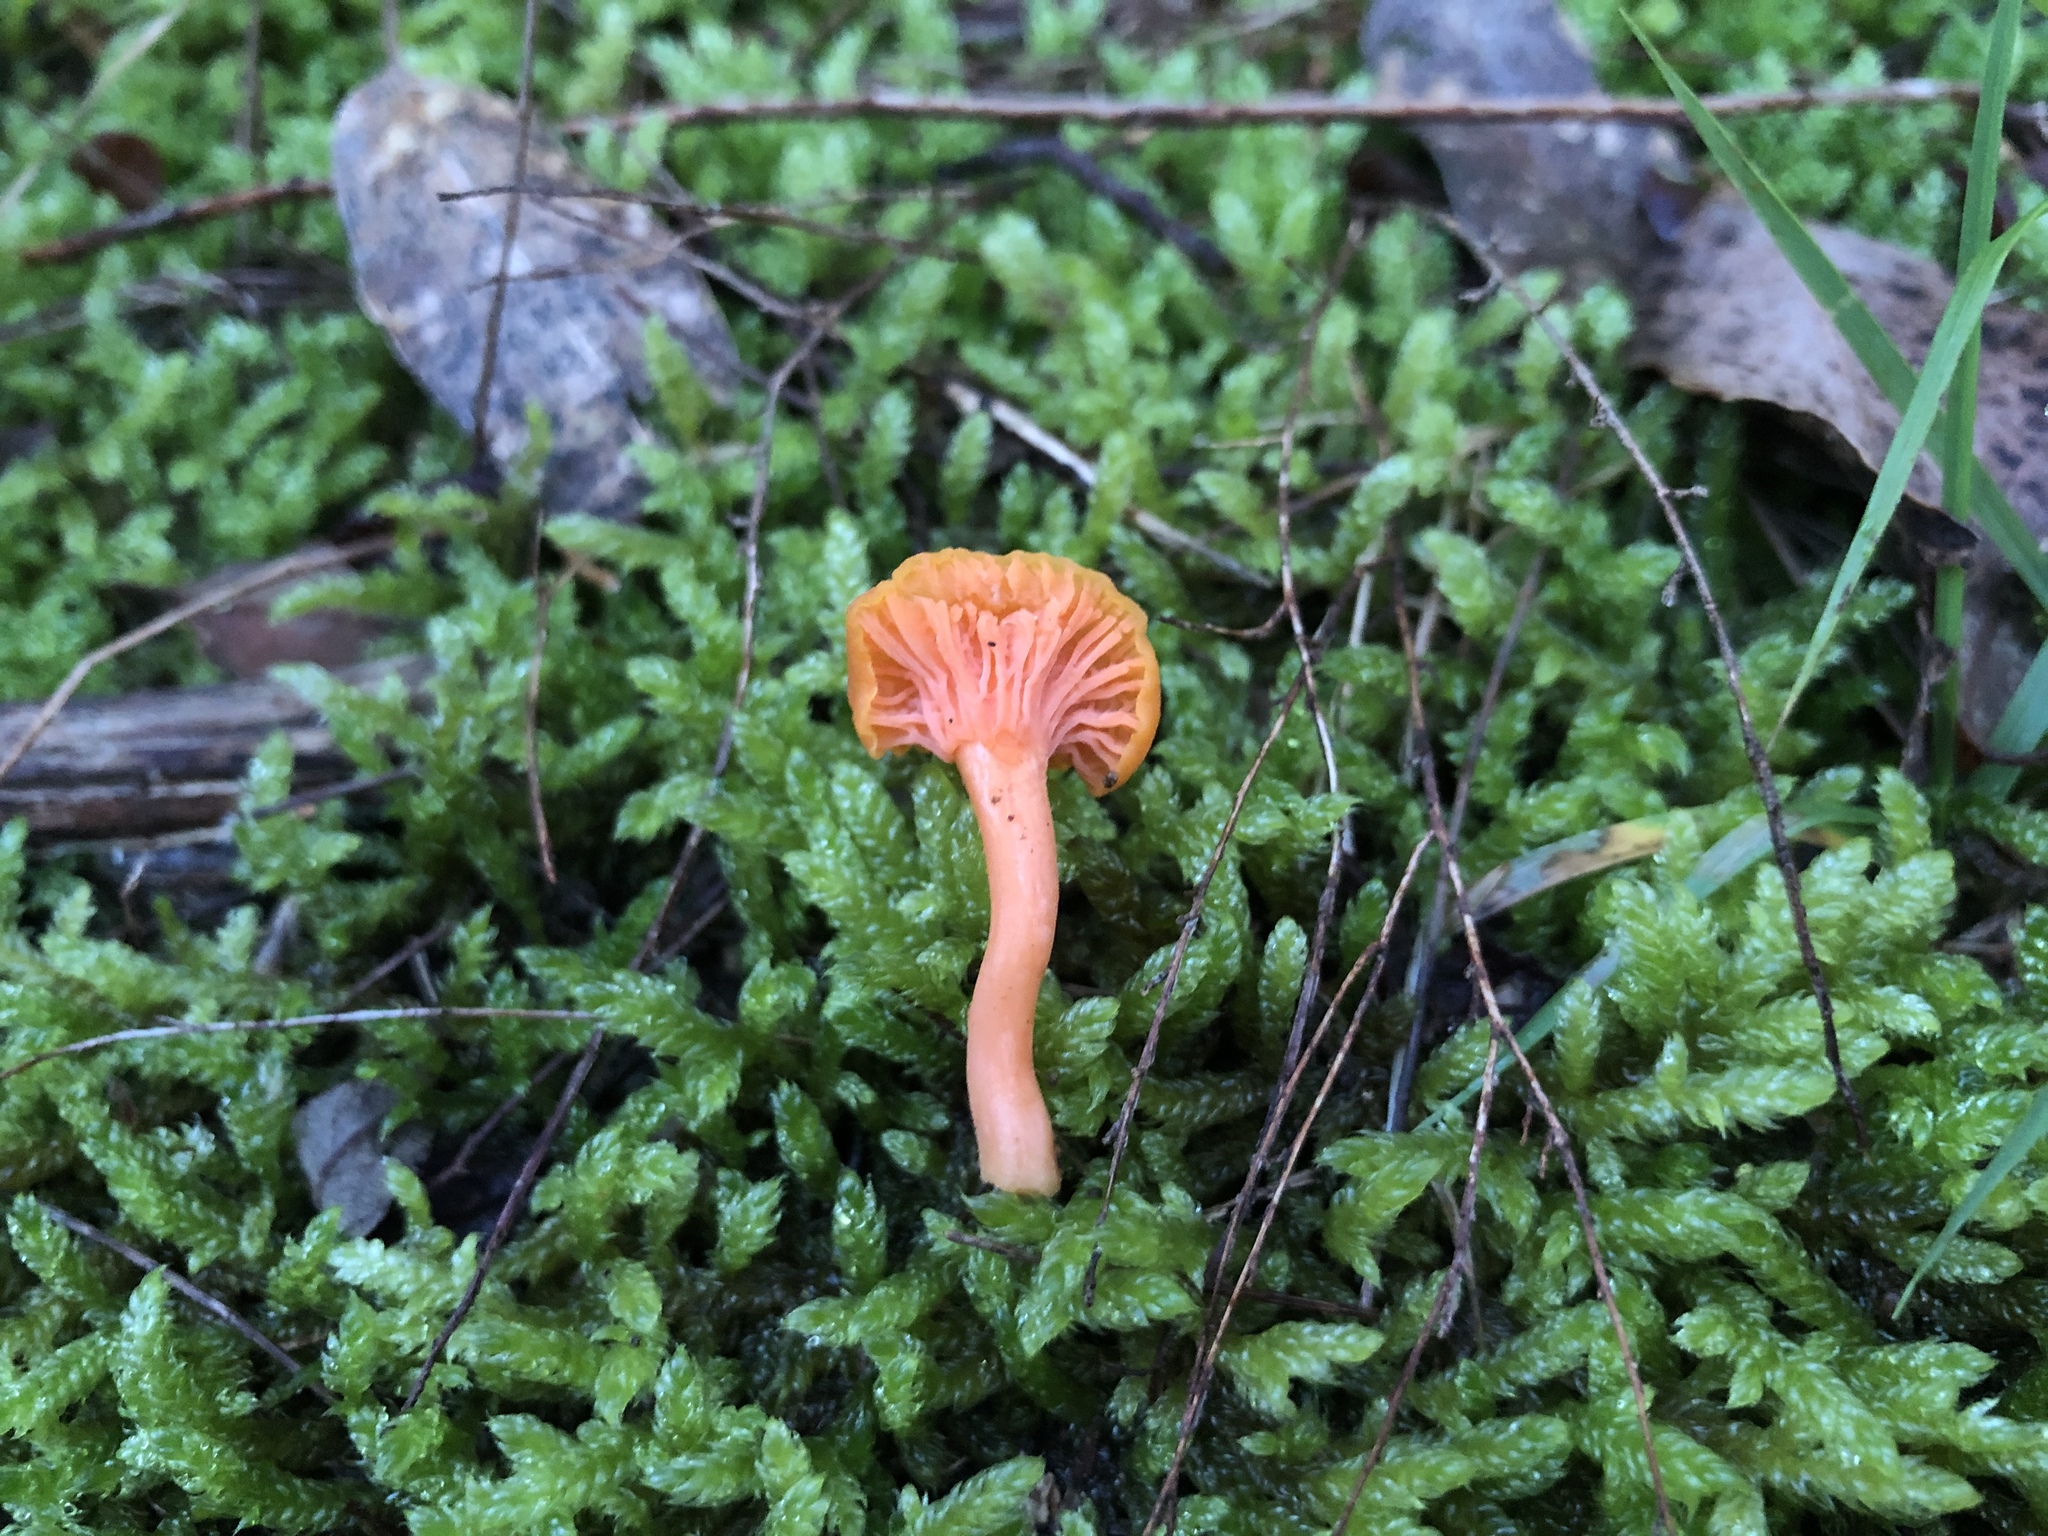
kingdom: Fungi
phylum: Basidiomycota
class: Agaricomycetes
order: Cantharellales
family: Hydnaceae
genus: Cantharellus
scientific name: Cantharellus
